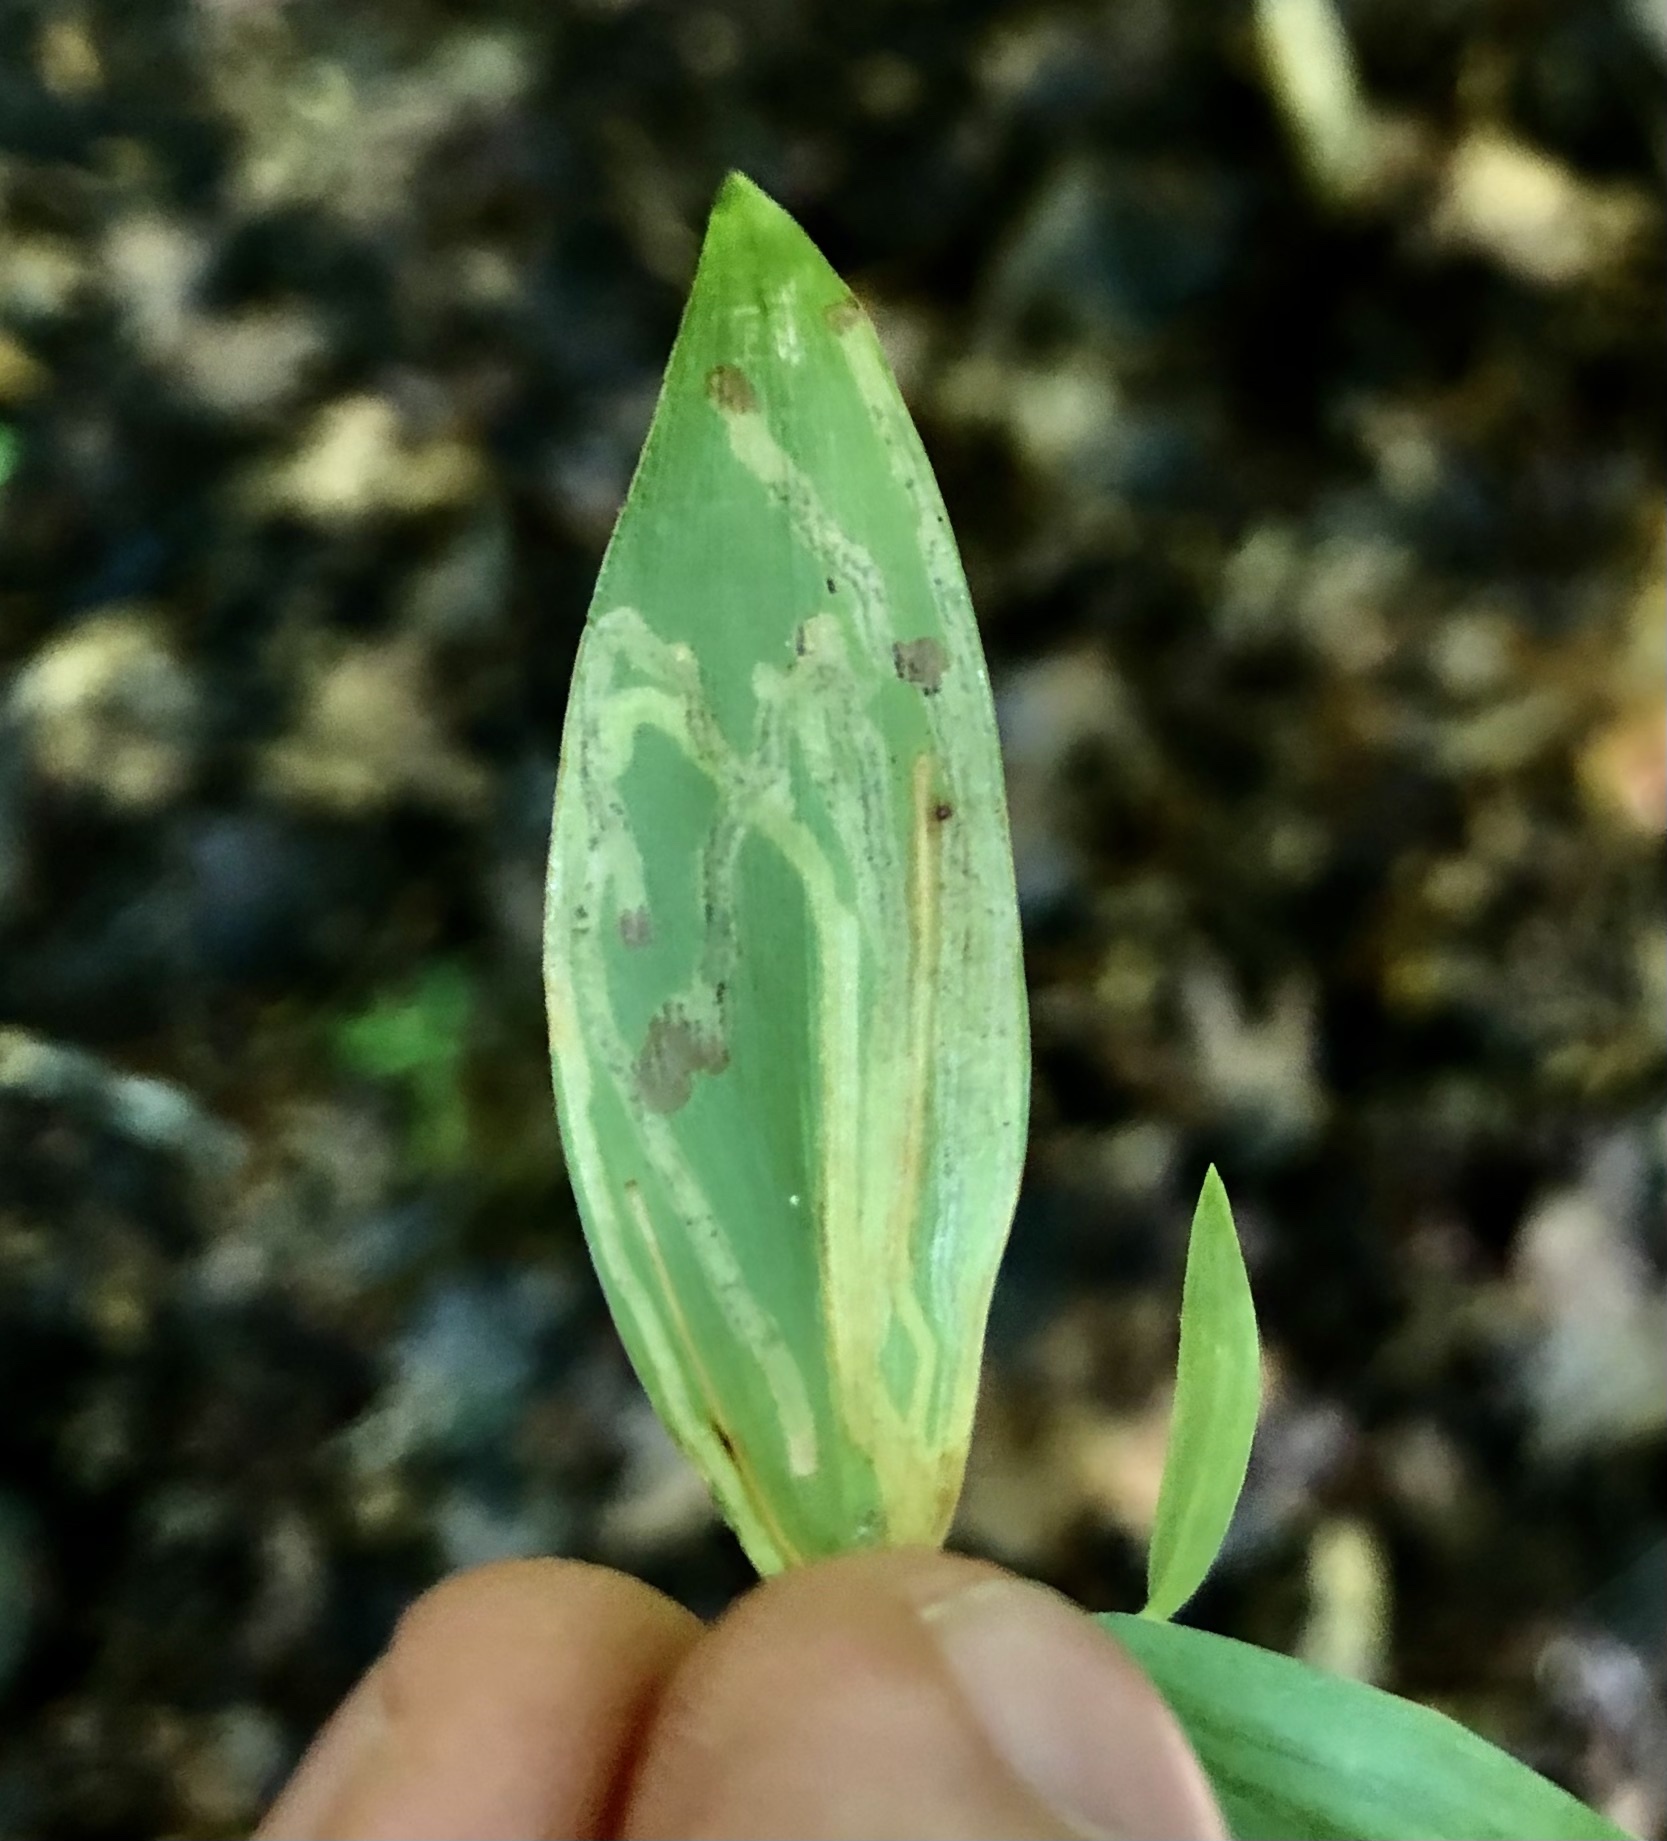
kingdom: Animalia
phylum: Arthropoda
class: Insecta
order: Diptera
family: Agromyzidae
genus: Cerodontha
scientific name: Cerodontha dorsalis
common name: Grass sheathminer fly
